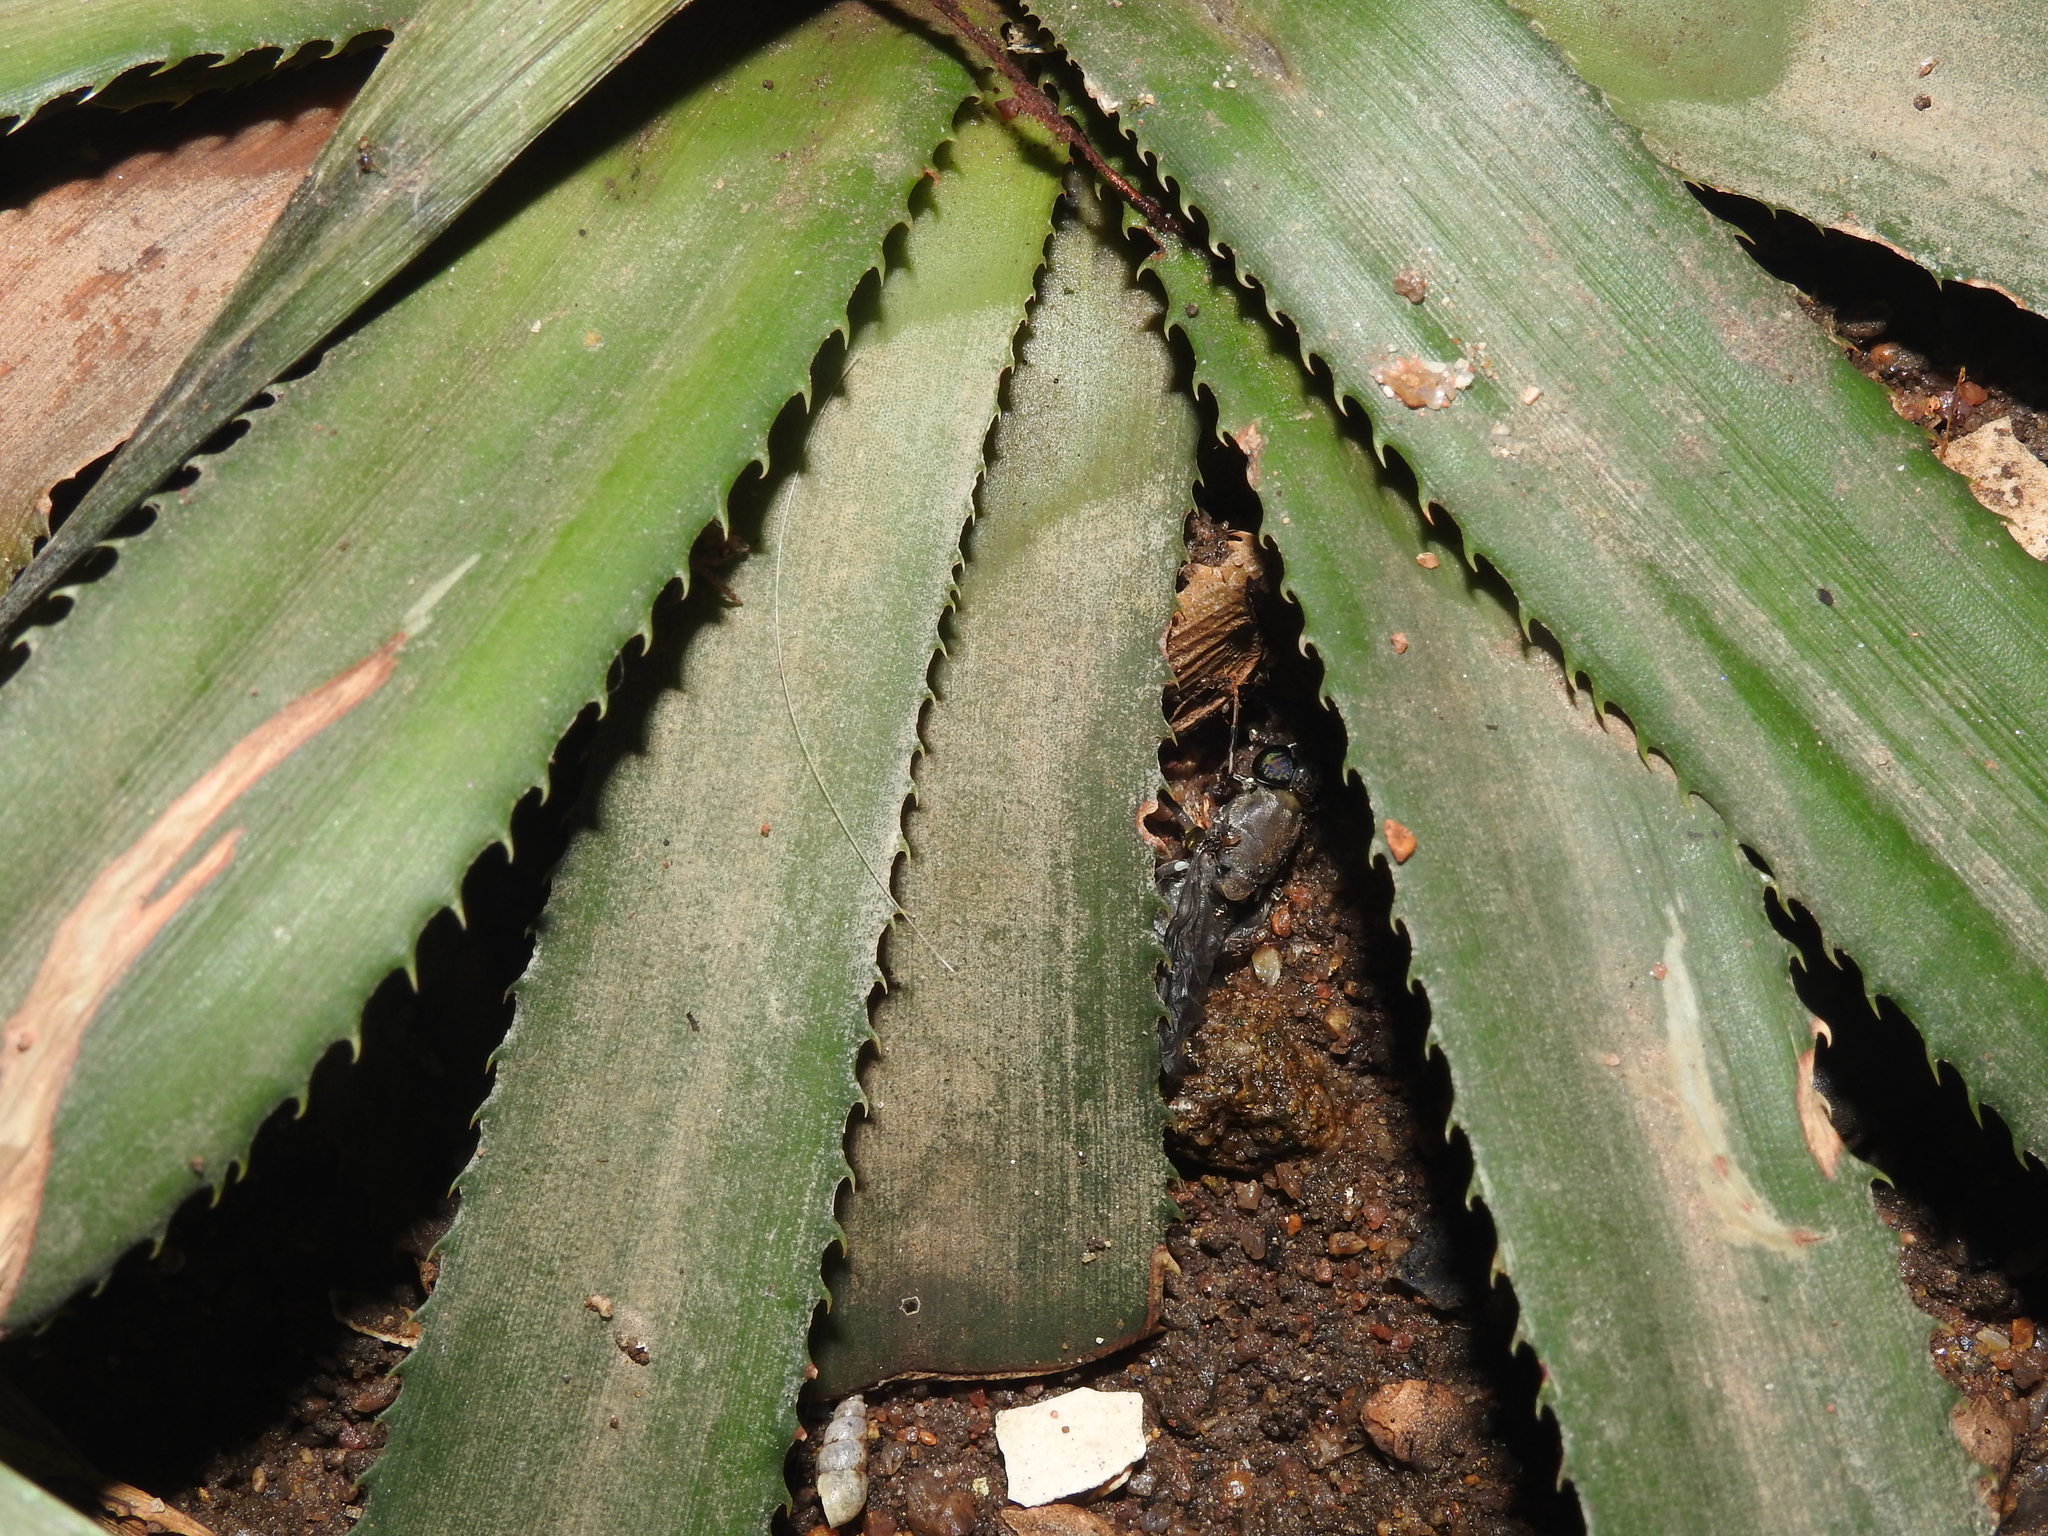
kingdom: Animalia
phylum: Arthropoda
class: Insecta
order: Diptera
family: Stratiomyidae
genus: Hermetia
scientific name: Hermetia illucens
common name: Black soldier fly
